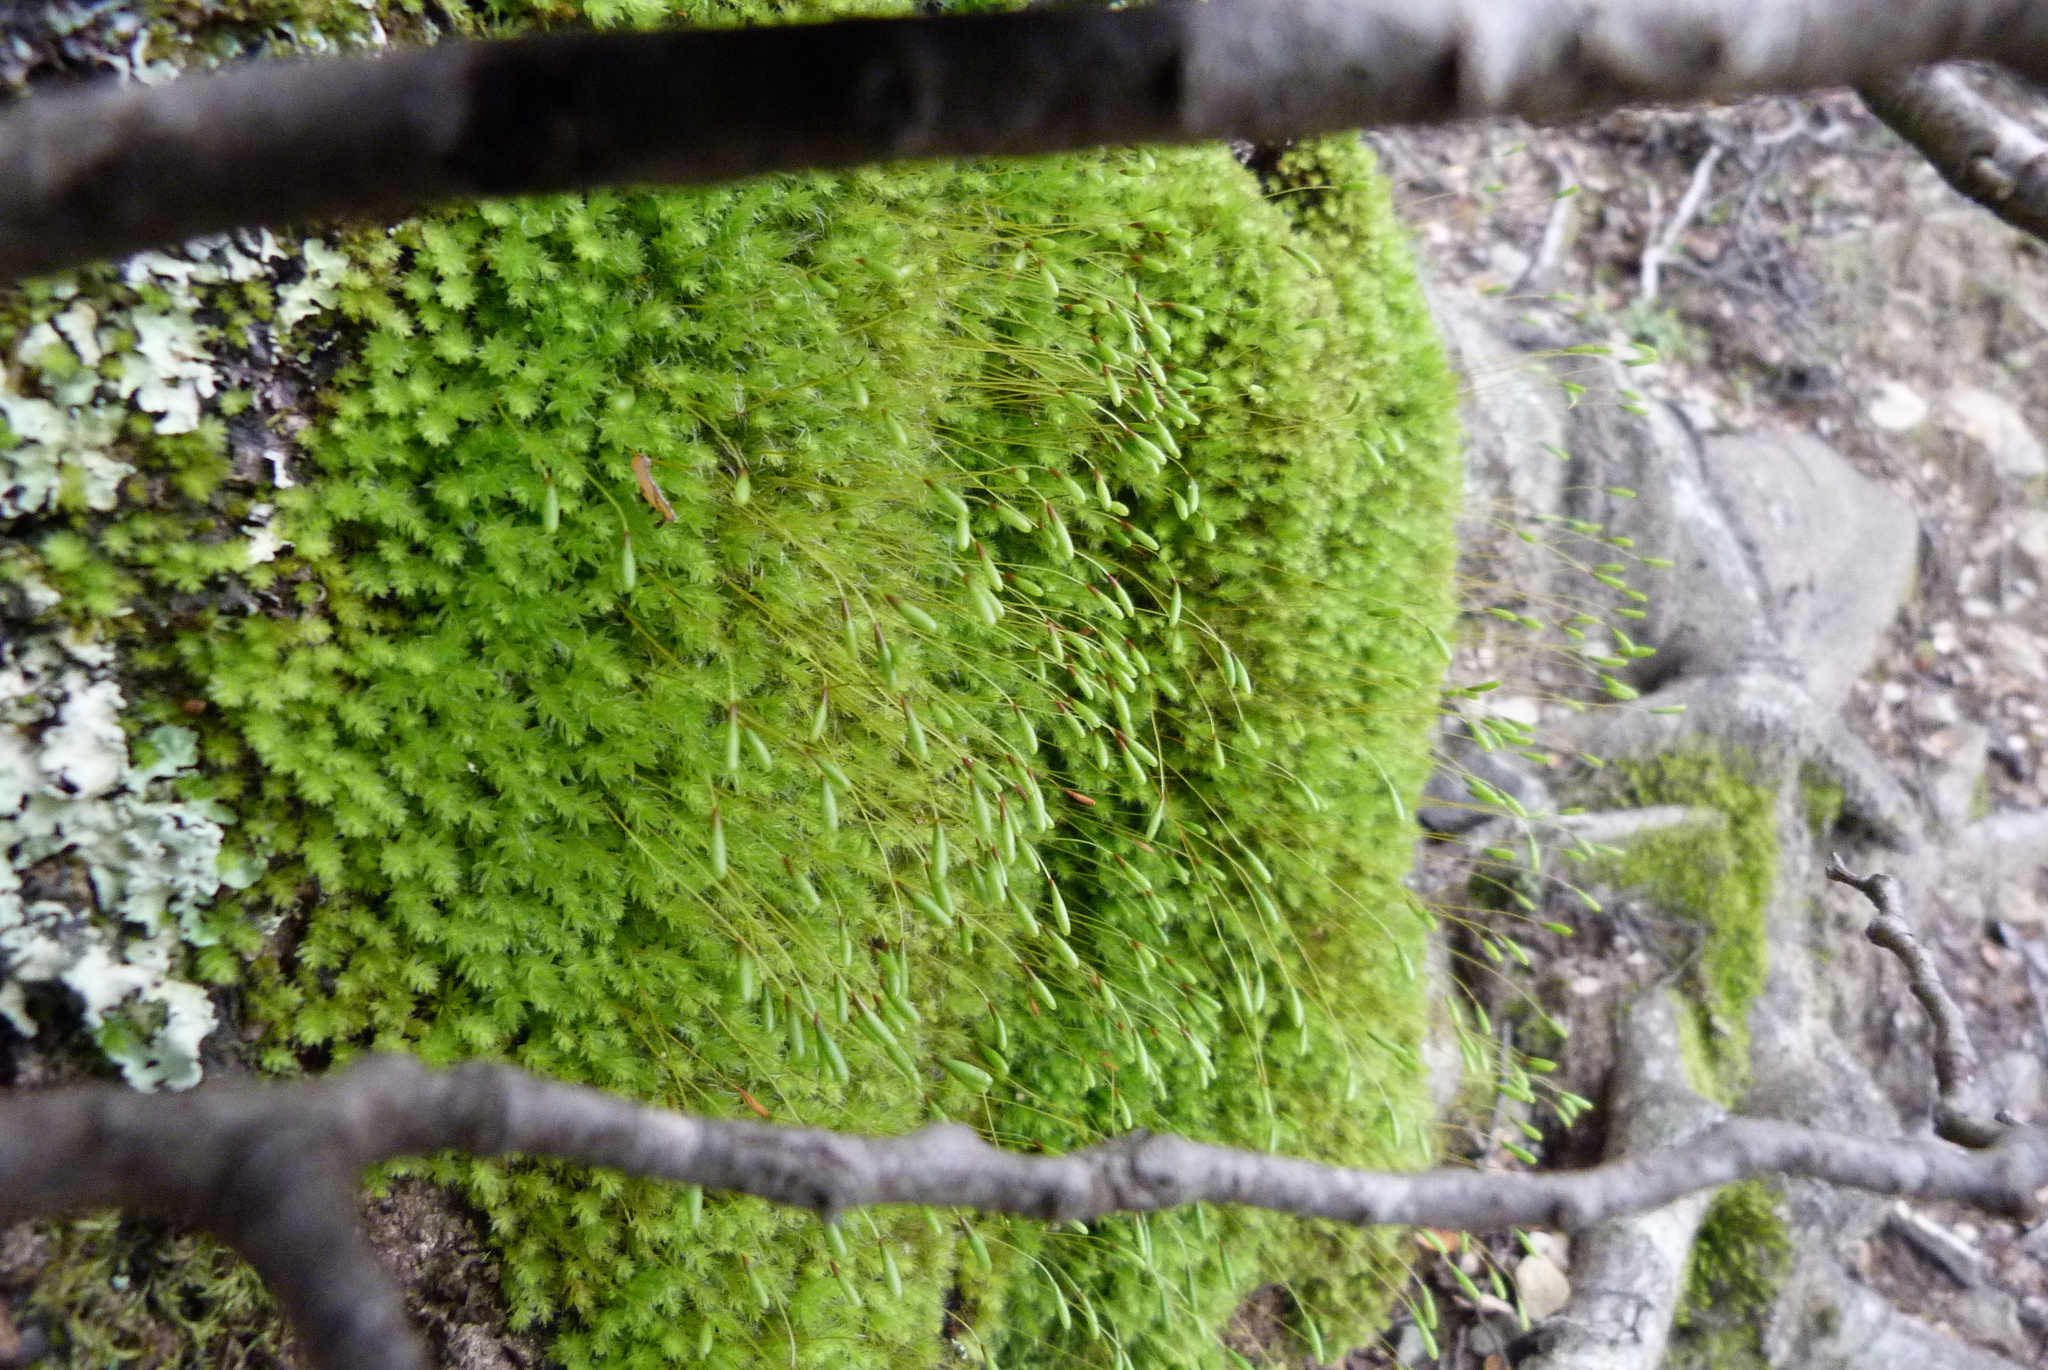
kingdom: Plantae
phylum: Bryophyta
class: Bryopsida
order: Bryales
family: Leptostomataceae
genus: Leptostomum
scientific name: Leptostomum inclinans
